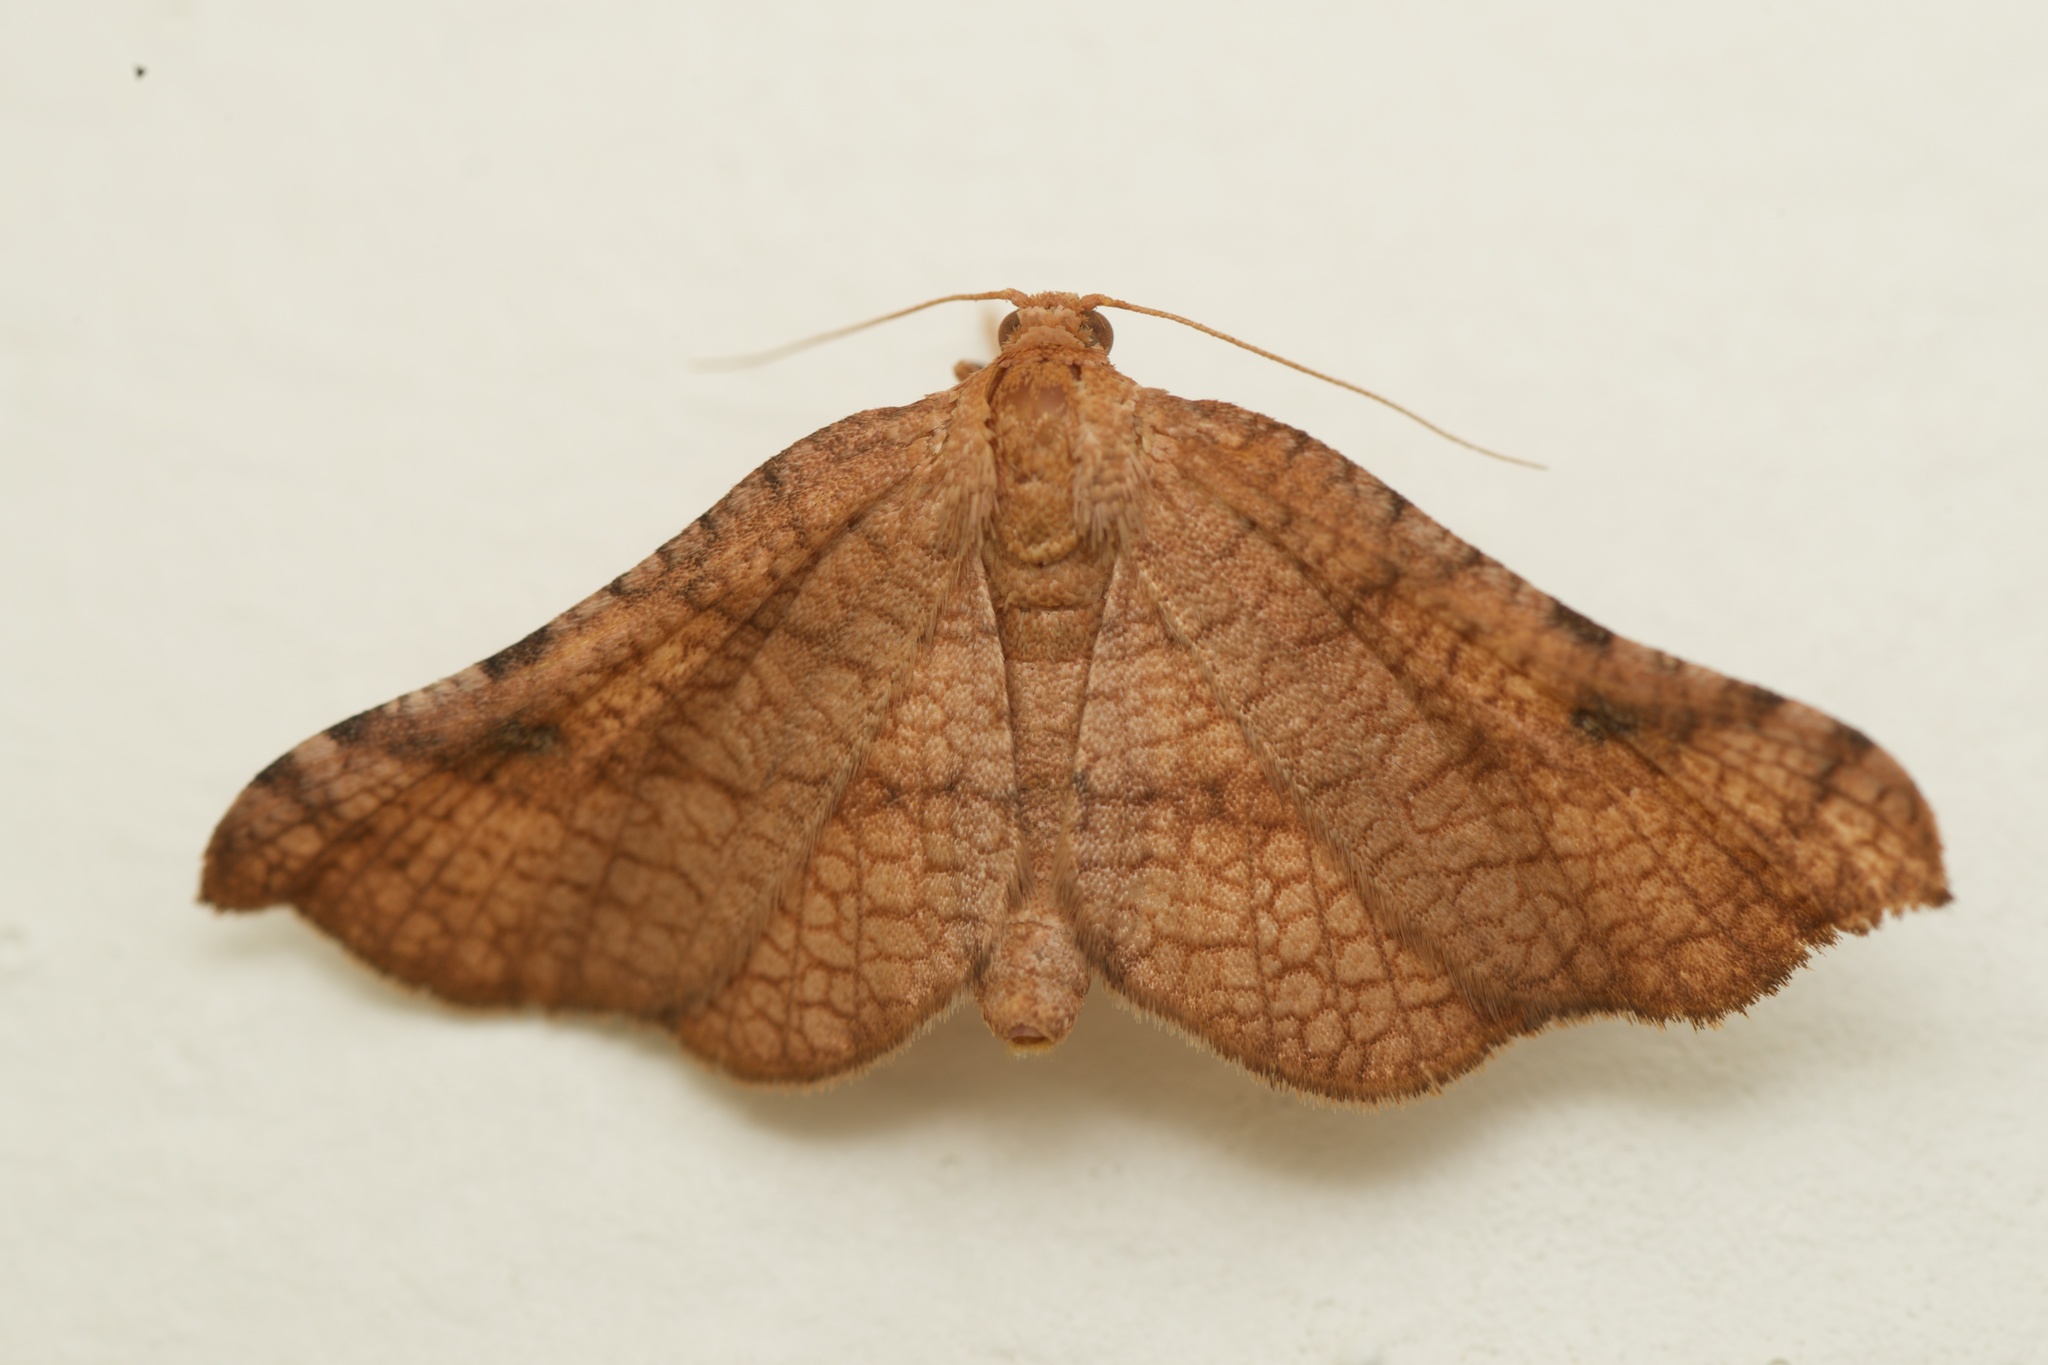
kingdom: Animalia
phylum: Arthropoda
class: Insecta
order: Lepidoptera
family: Thyrididae
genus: Morova
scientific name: Morova subfasciata
